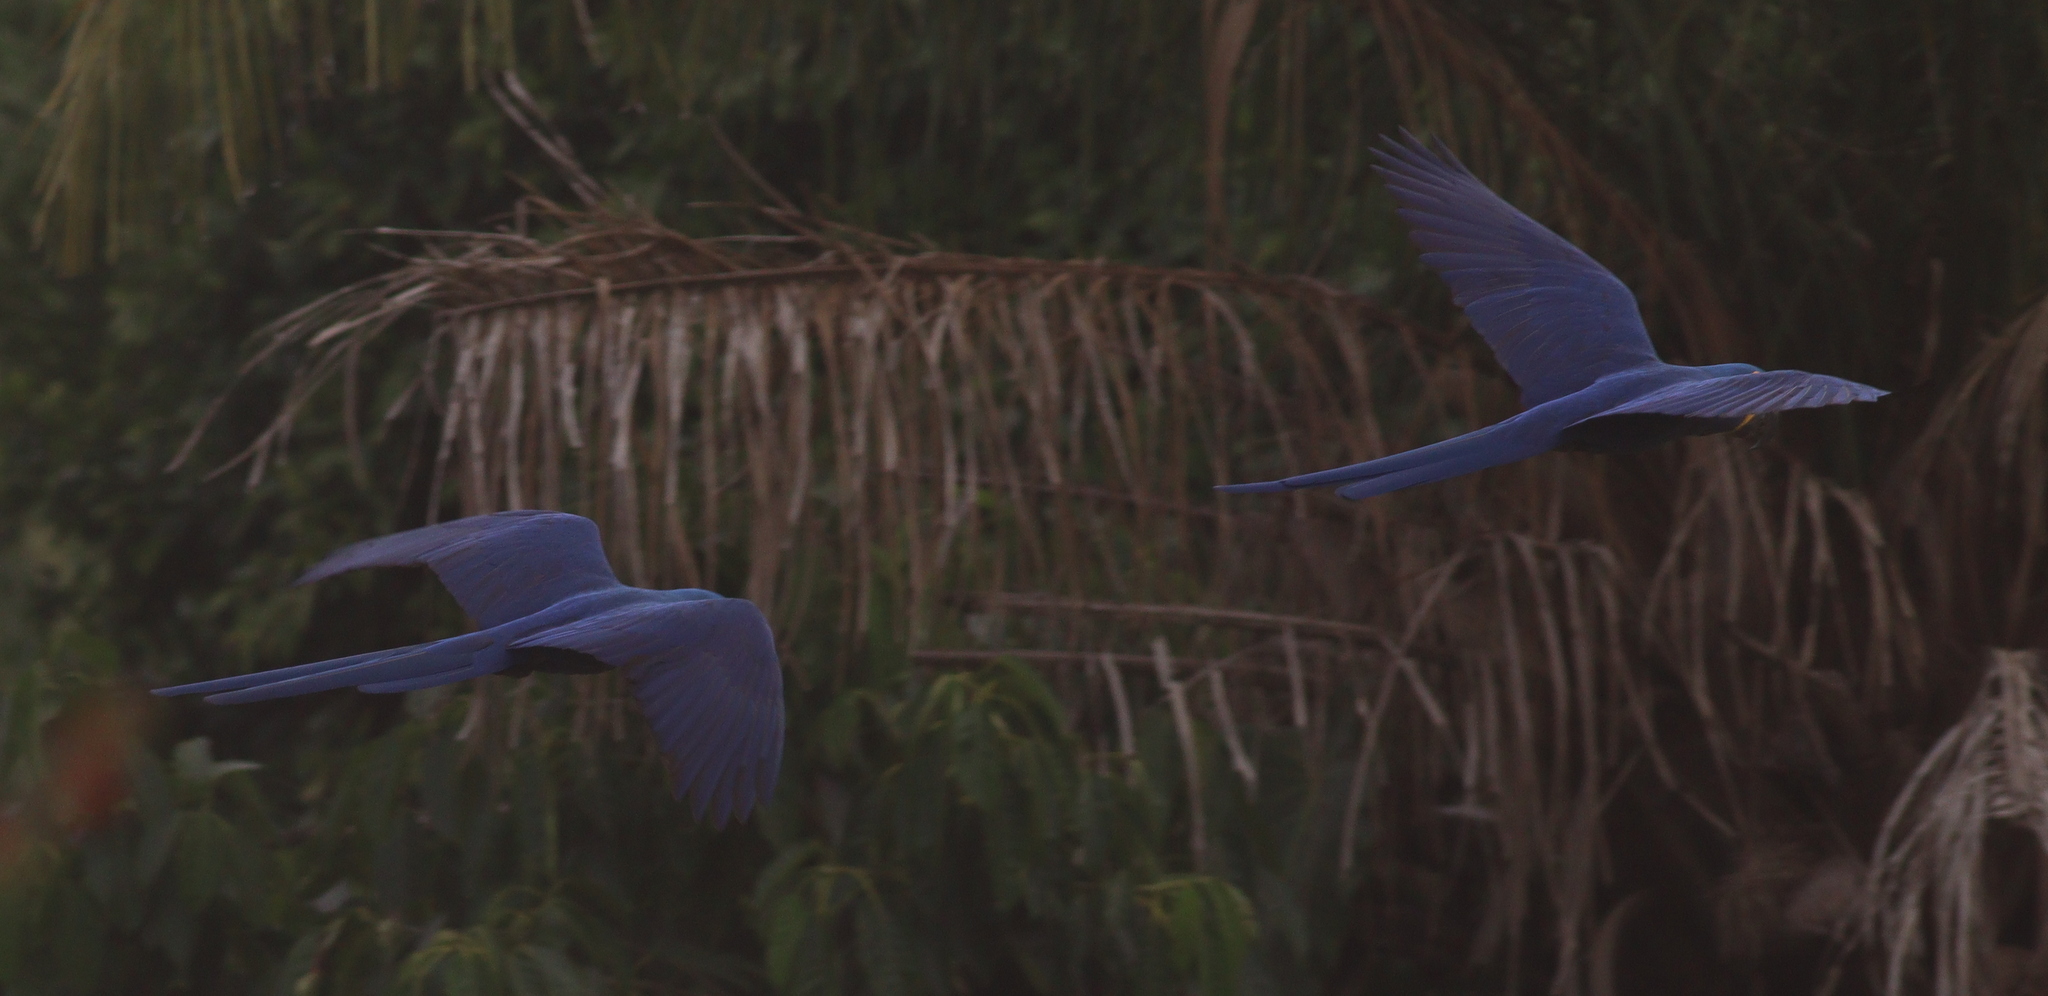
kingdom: Animalia
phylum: Chordata
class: Aves
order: Psittaciformes
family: Psittacidae
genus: Anodorhynchus
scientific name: Anodorhynchus hyacinthinus
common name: Hyacinth macaw
